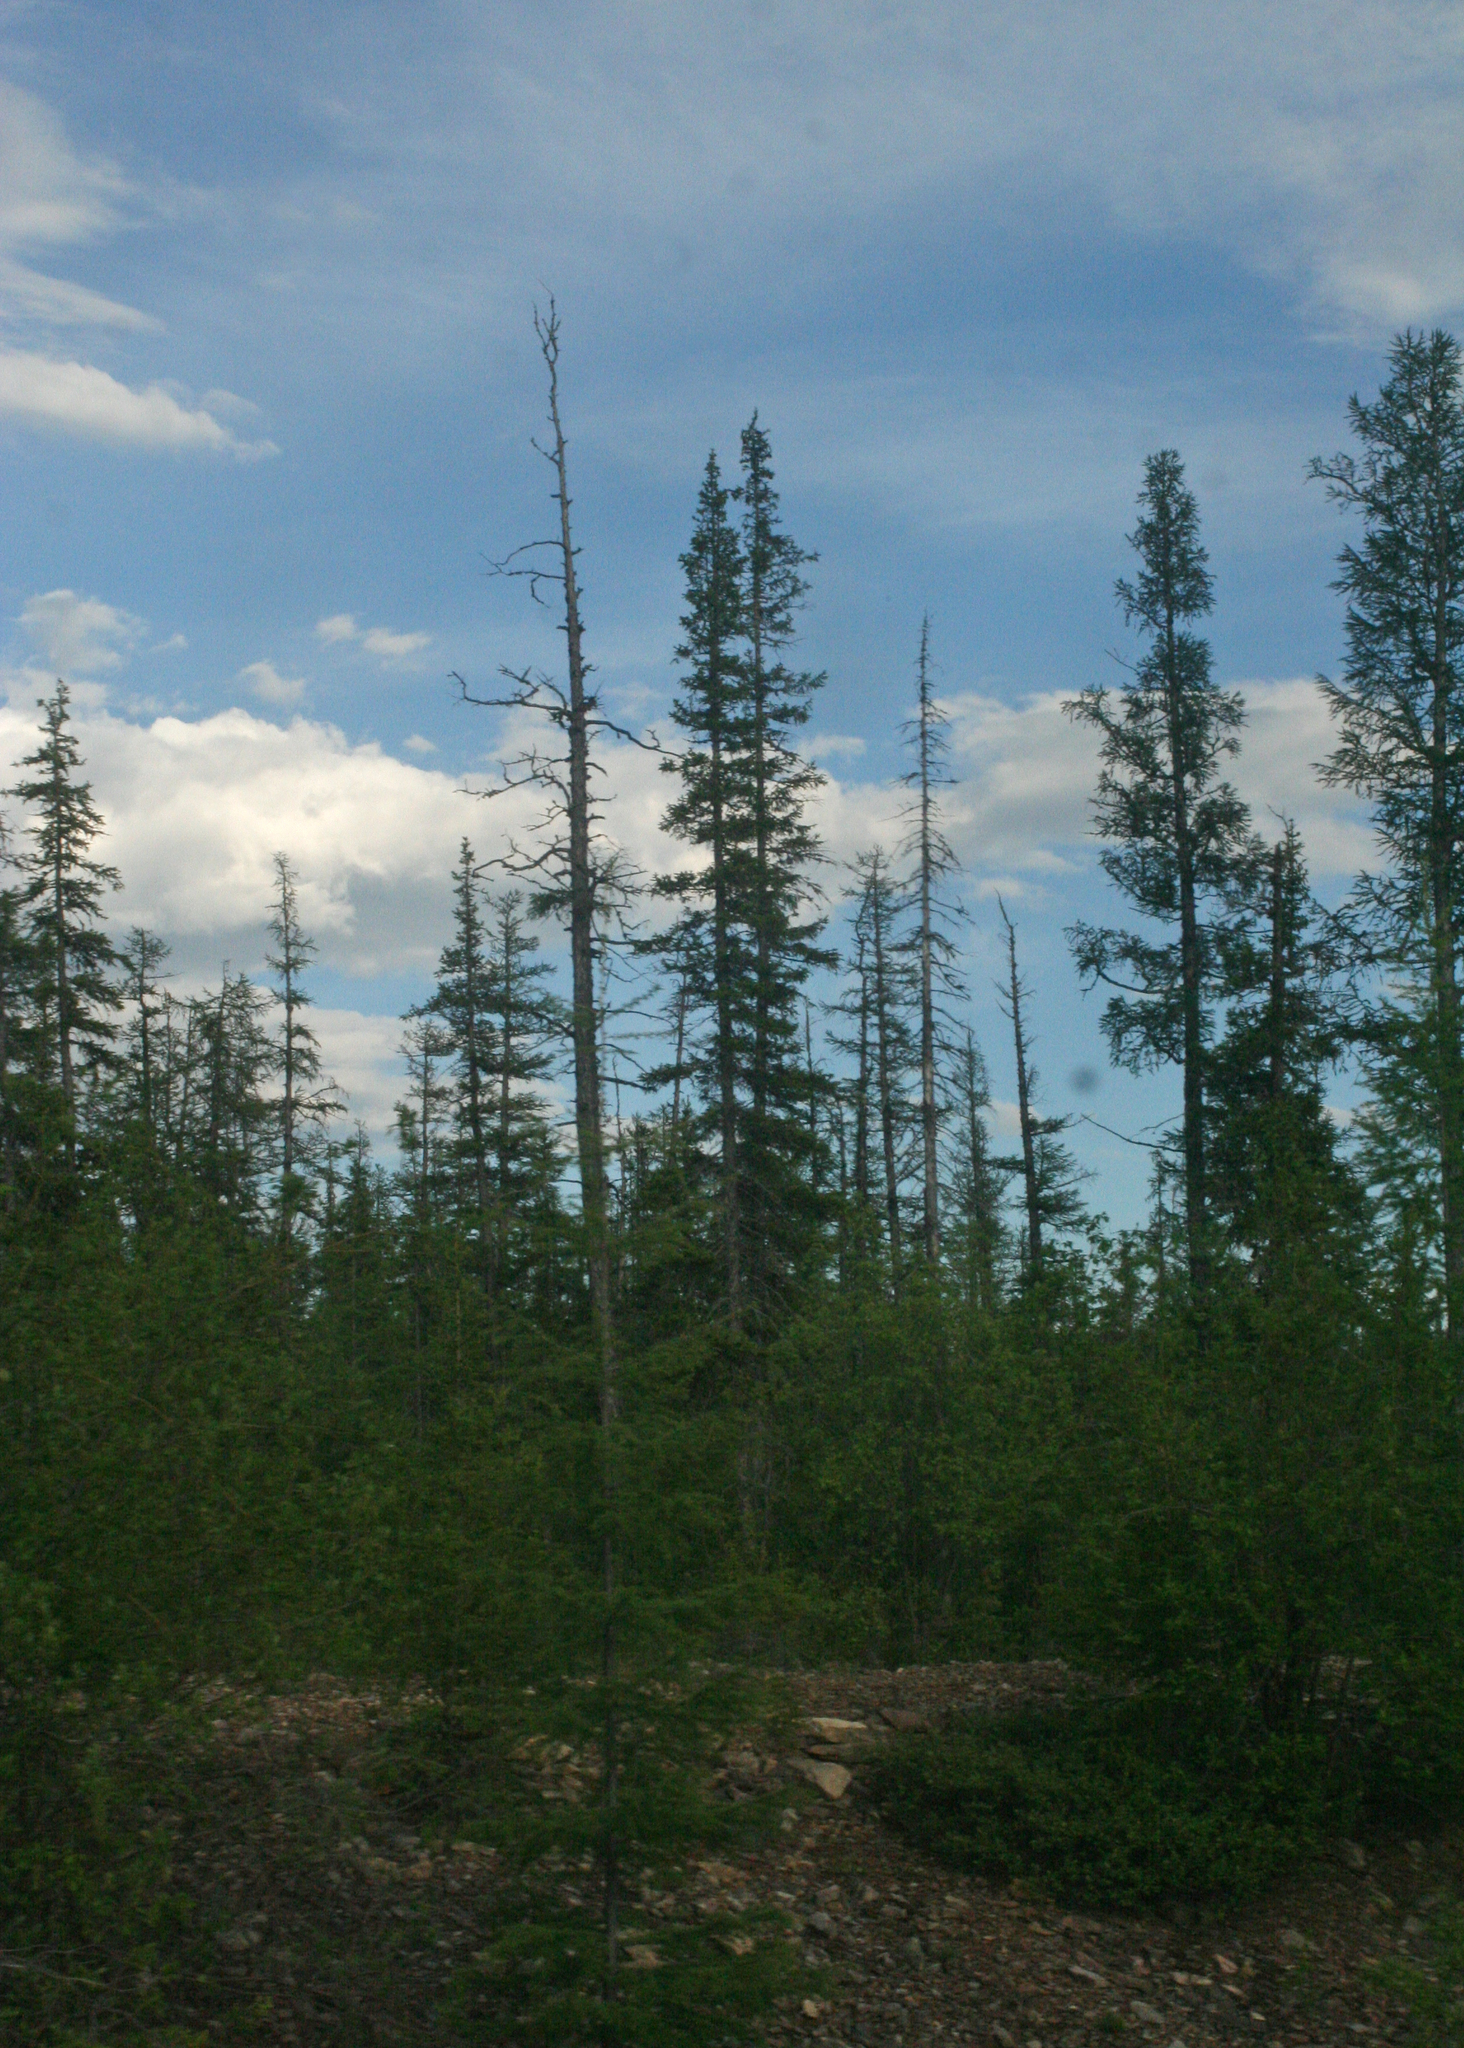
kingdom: Plantae
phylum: Tracheophyta
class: Pinopsida
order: Pinales
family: Pinaceae
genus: Picea
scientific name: Picea obovata
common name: Siberian spruce
